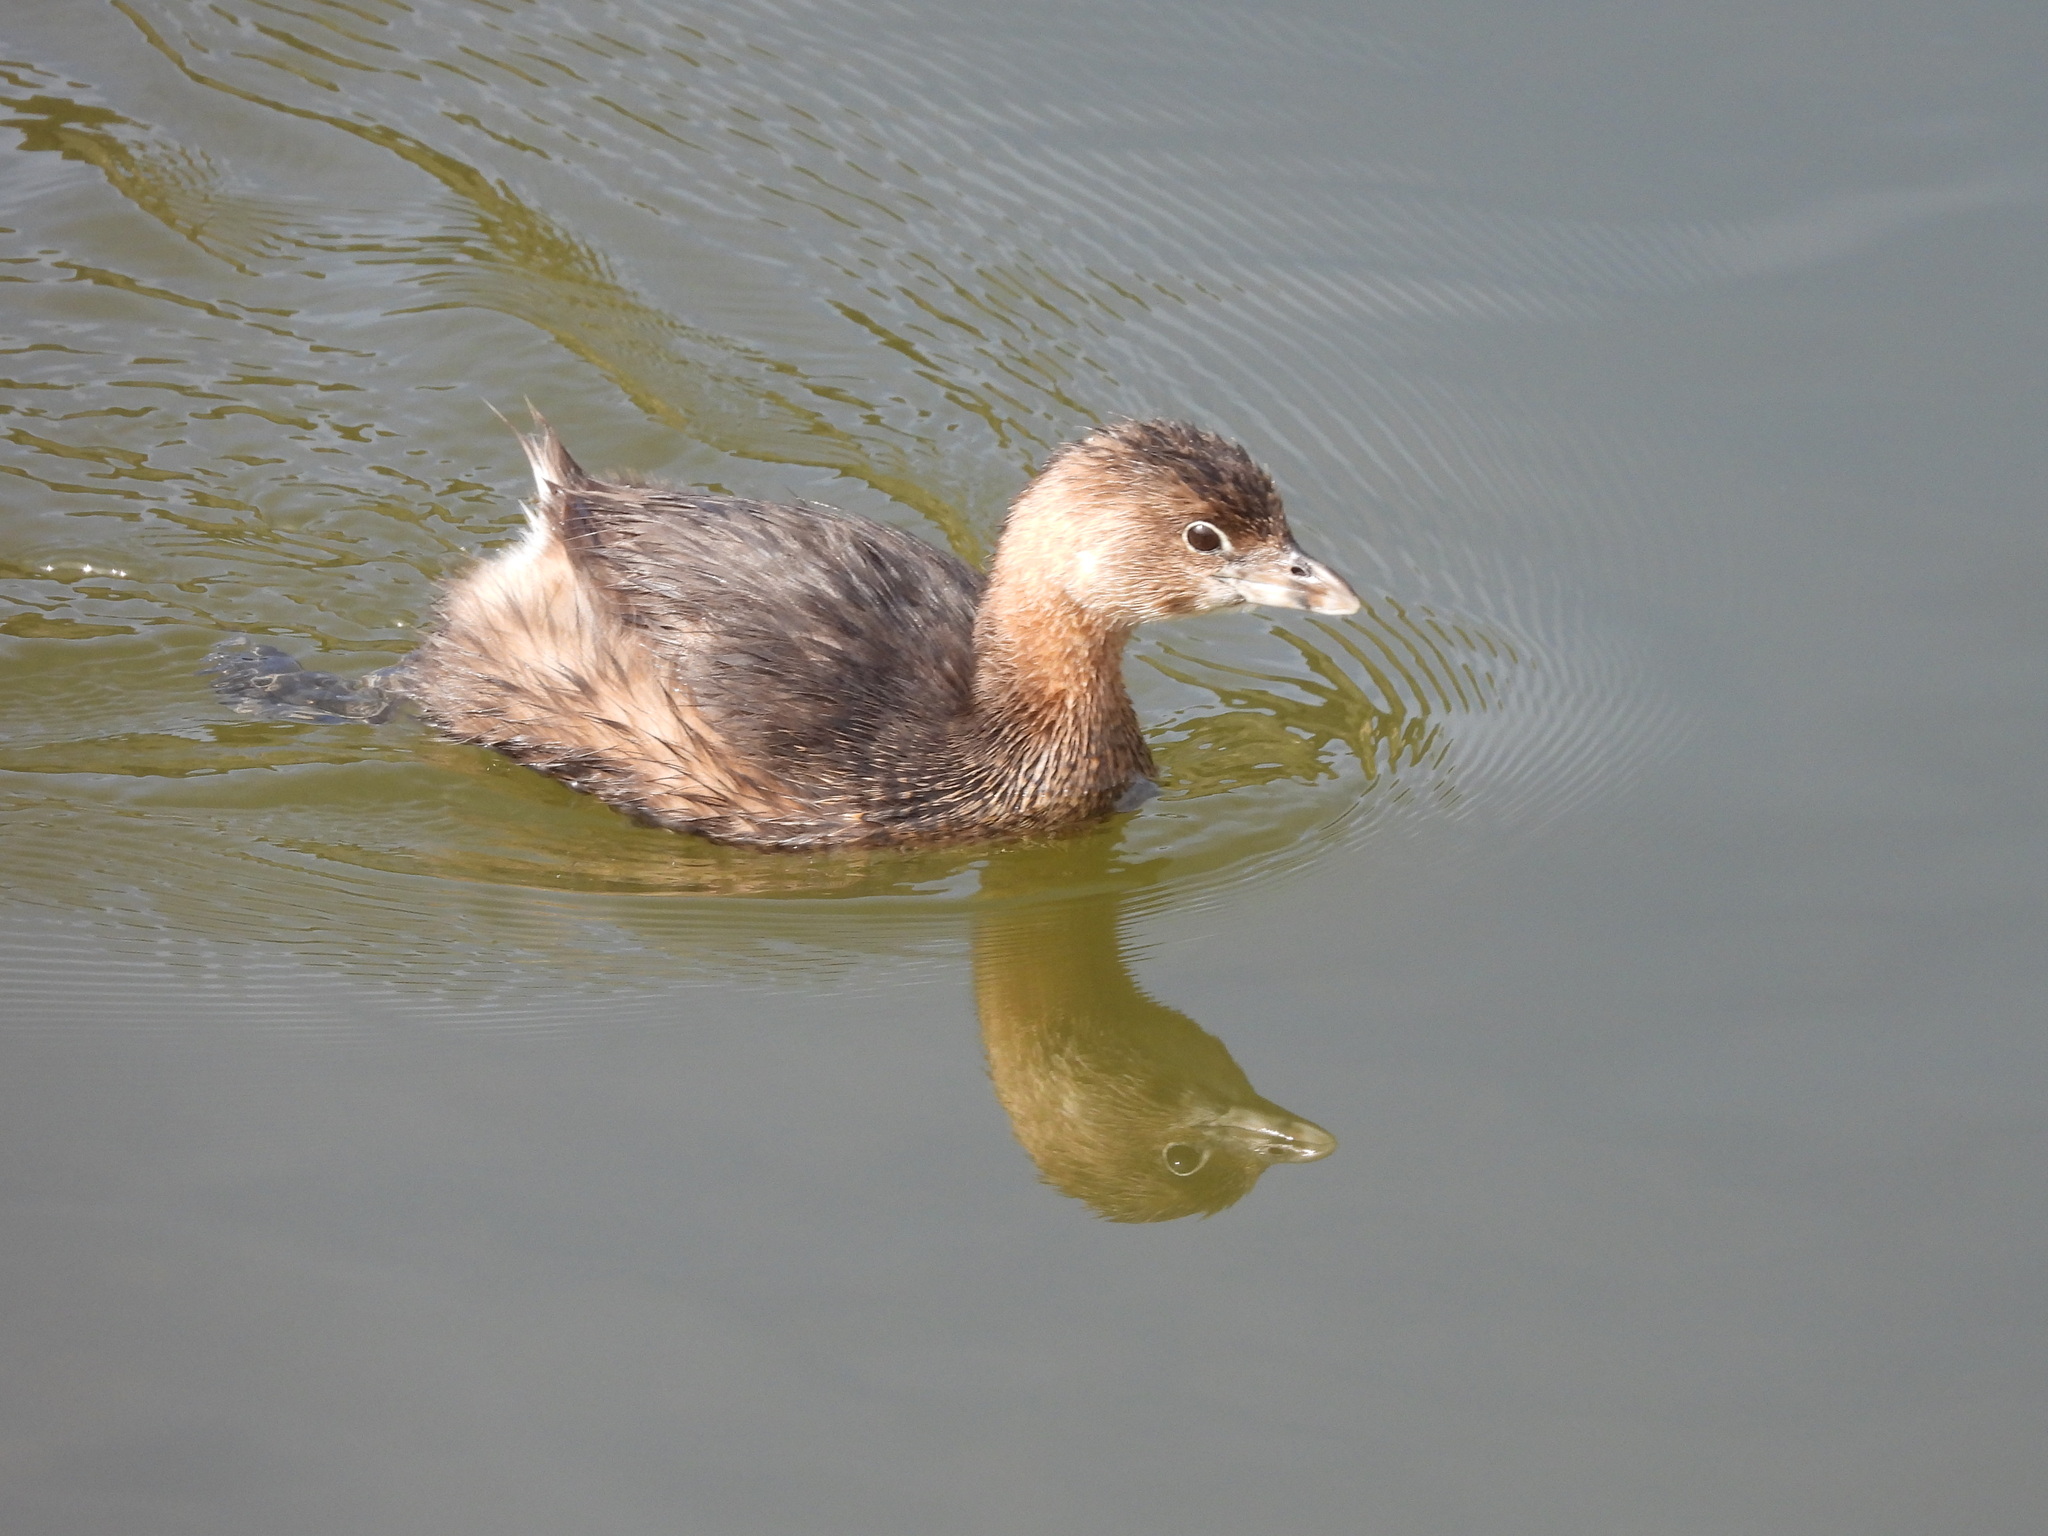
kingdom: Animalia
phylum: Chordata
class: Aves
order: Podicipediformes
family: Podicipedidae
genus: Podilymbus
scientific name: Podilymbus podiceps
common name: Pied-billed grebe
